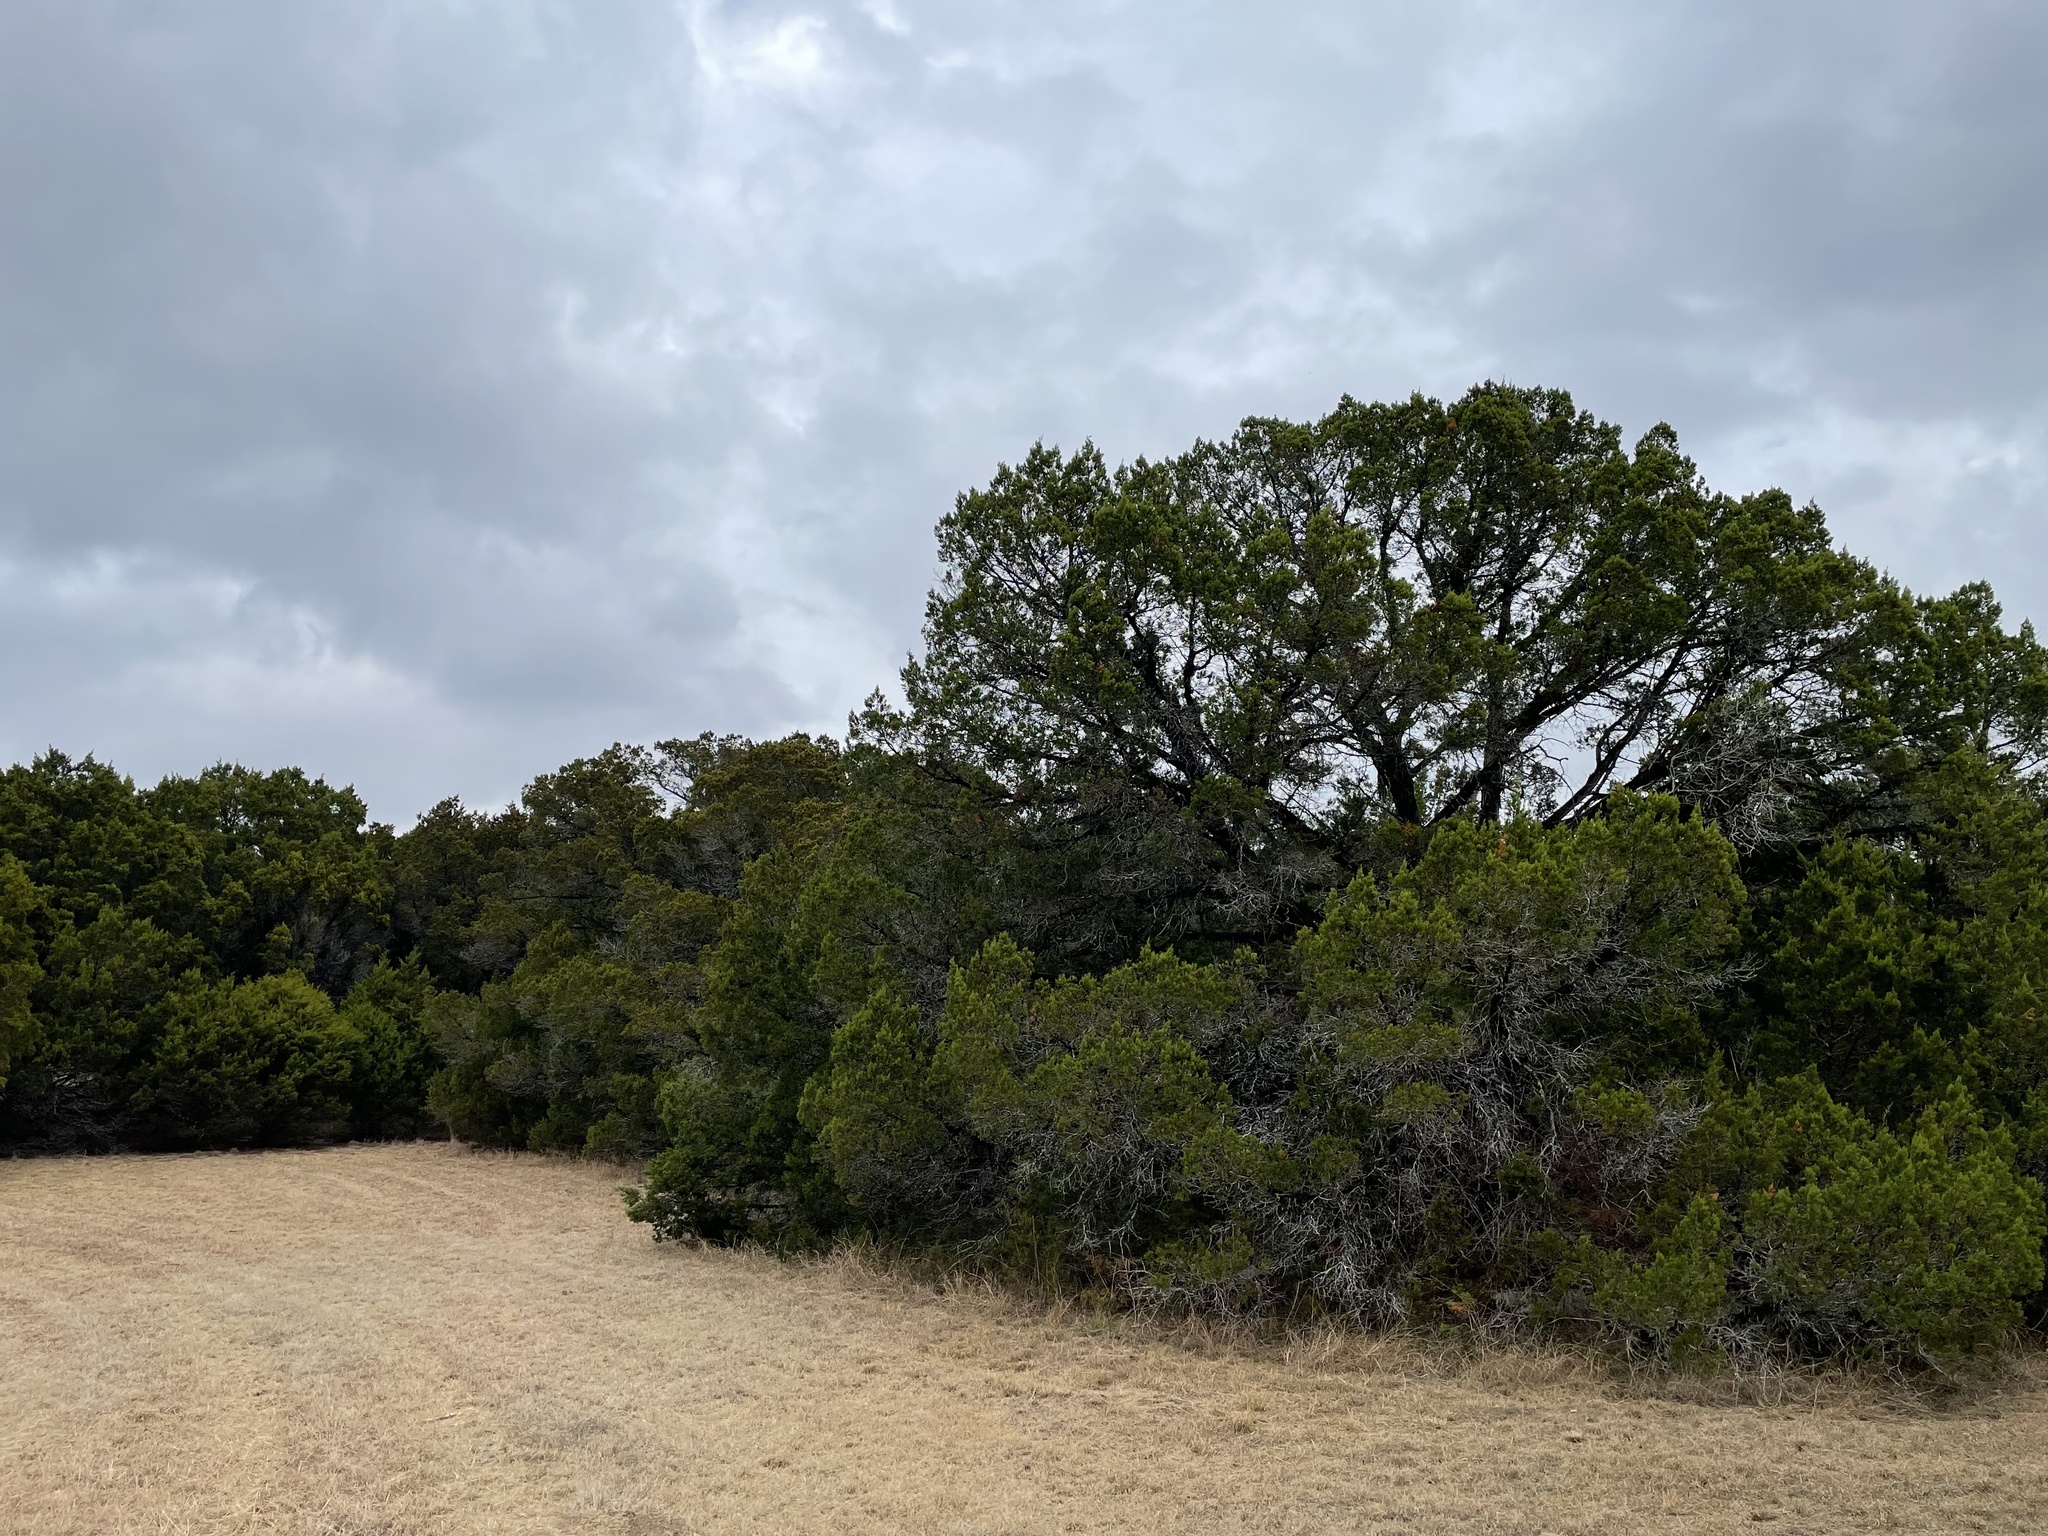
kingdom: Plantae
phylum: Tracheophyta
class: Pinopsida
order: Pinales
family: Cupressaceae
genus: Juniperus
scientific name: Juniperus ashei
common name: Mexican juniper
